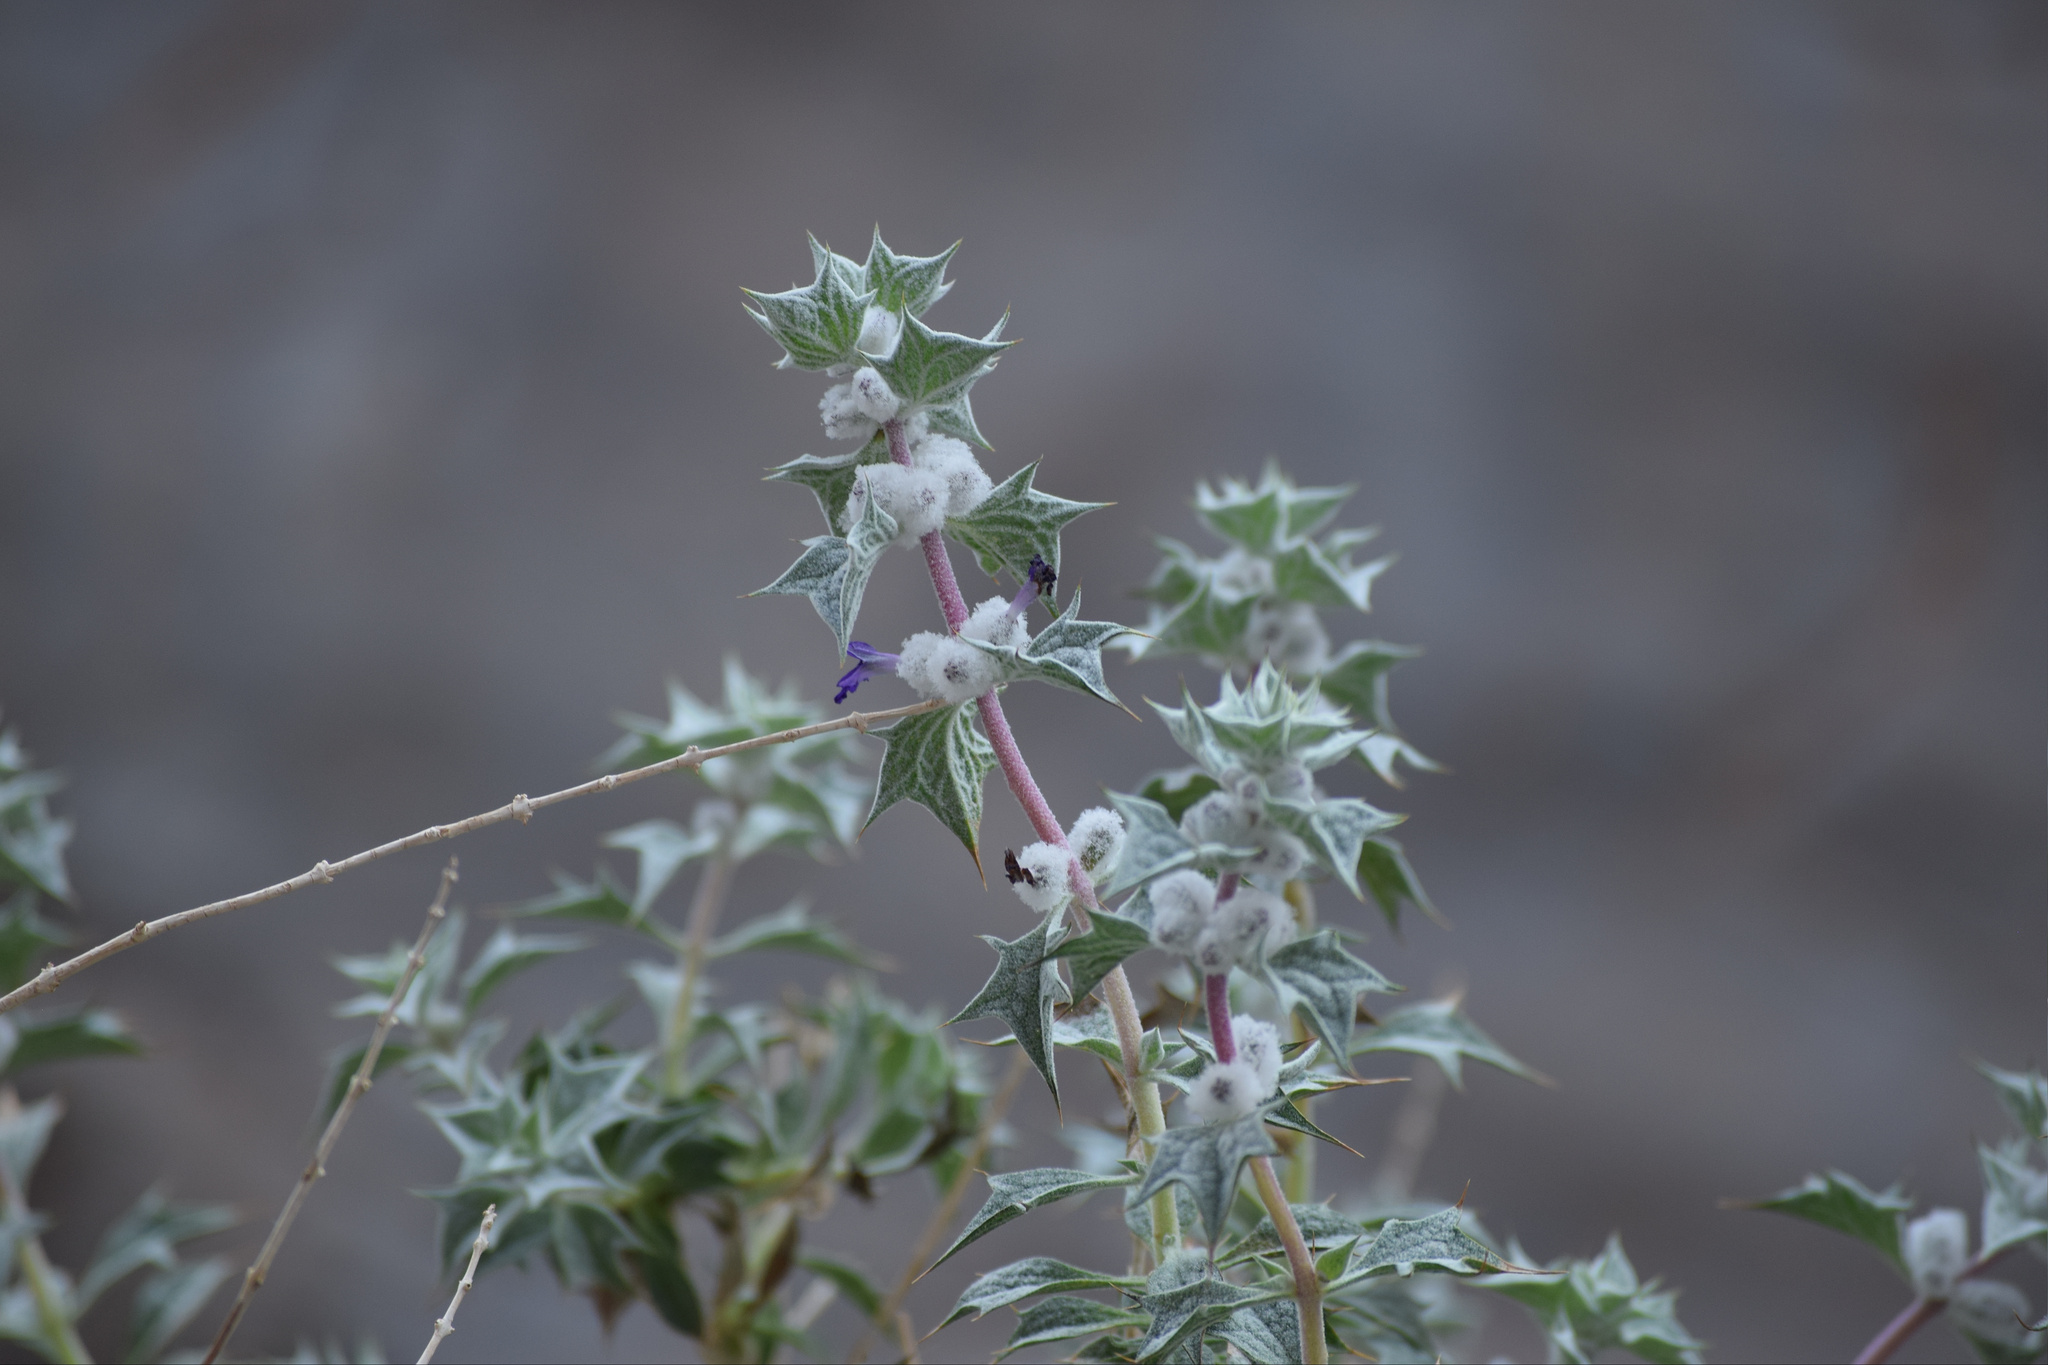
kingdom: Plantae
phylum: Tracheophyta
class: Magnoliopsida
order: Lamiales
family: Lamiaceae
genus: Salvia
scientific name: Salvia funerea
